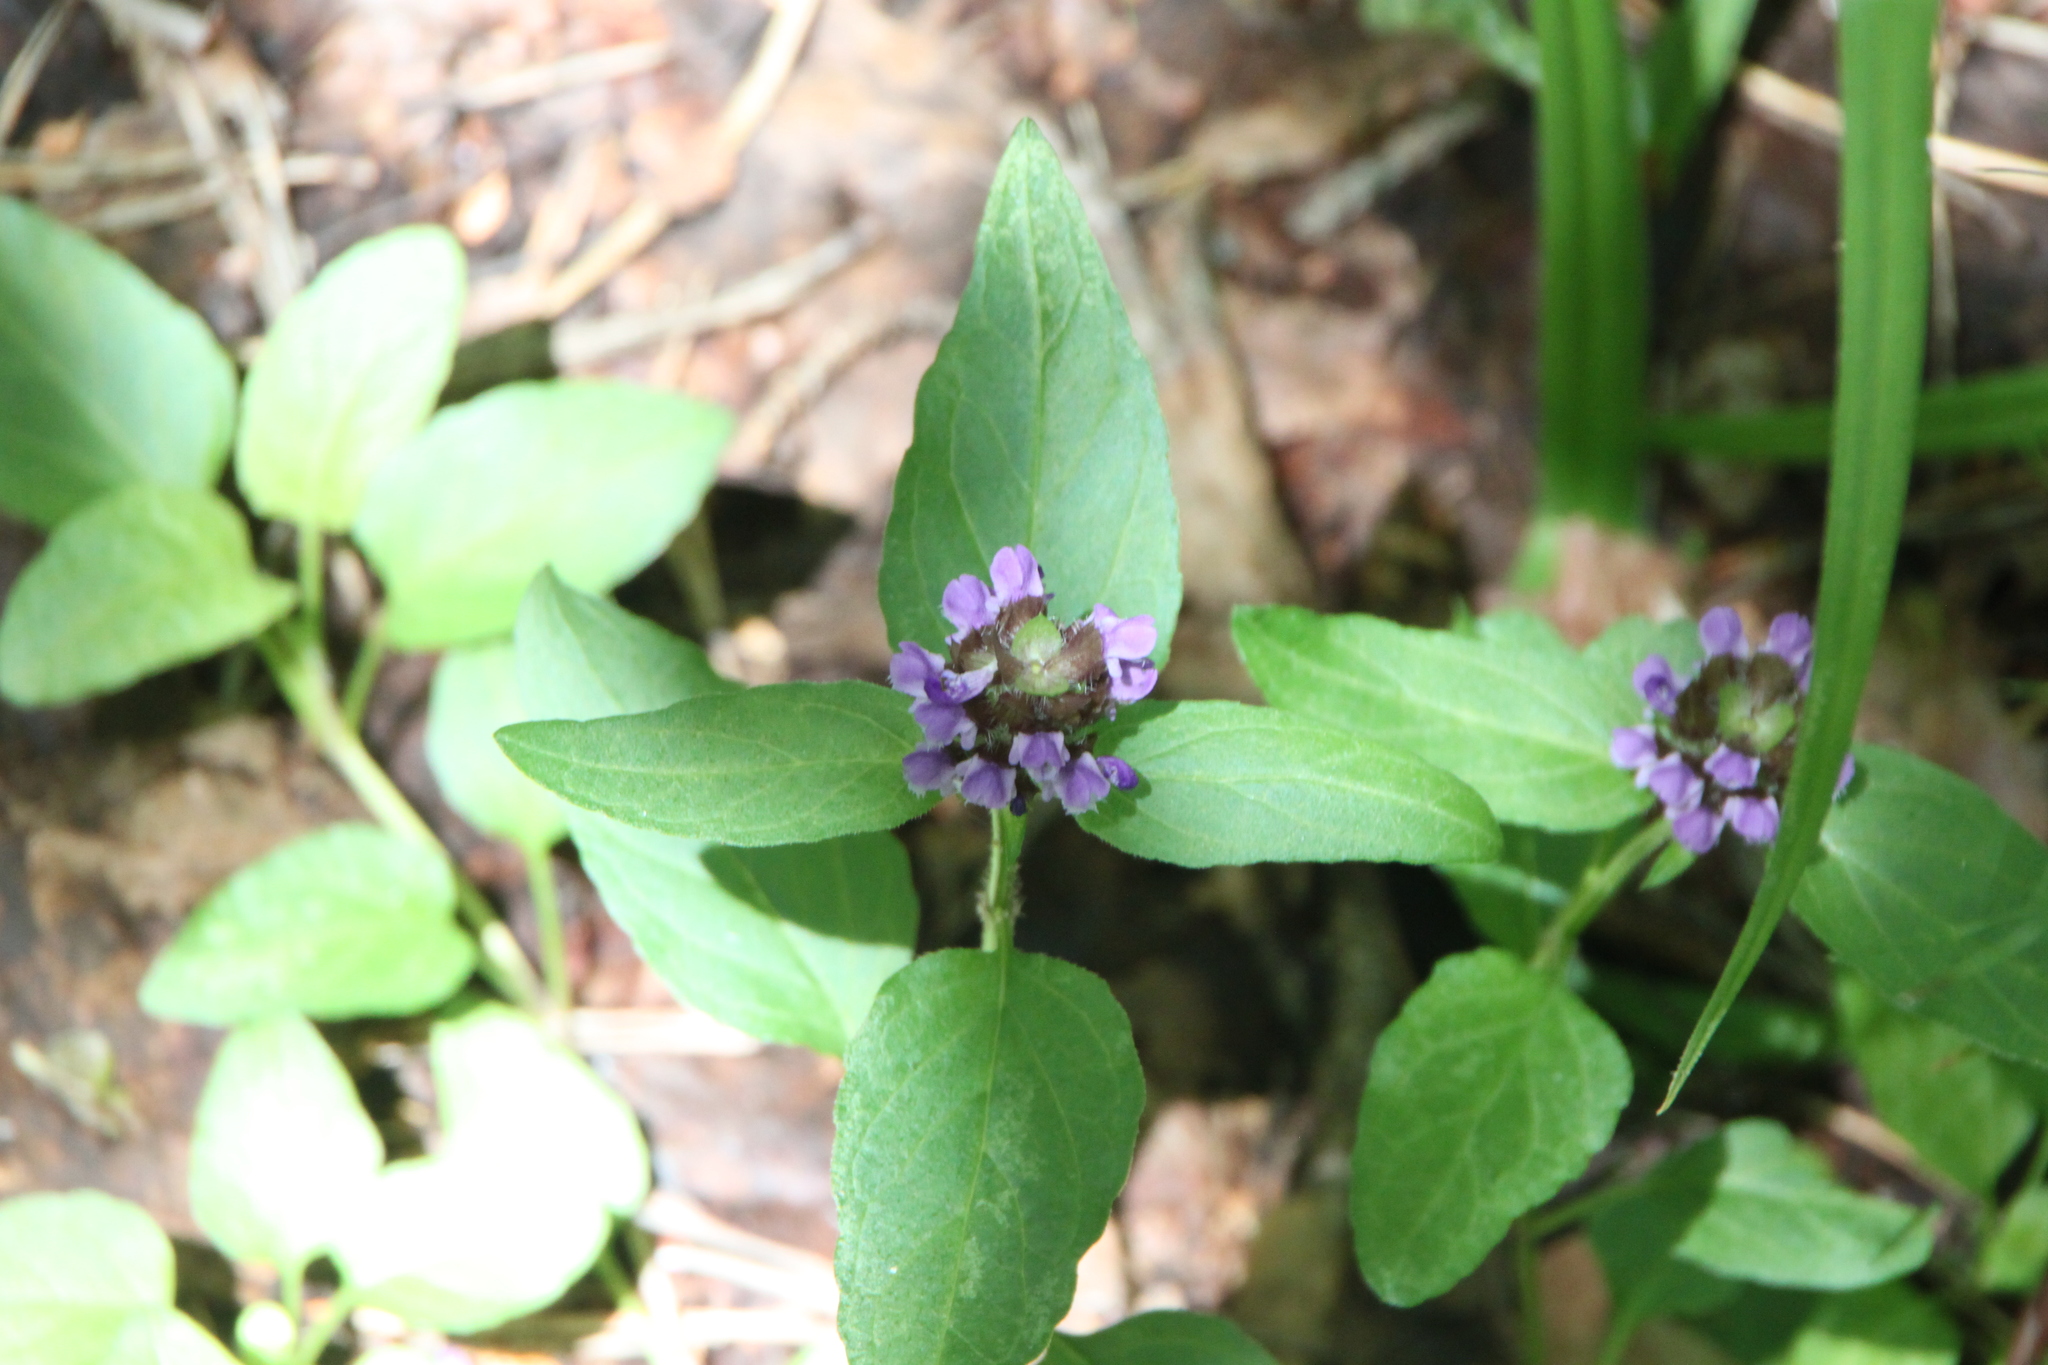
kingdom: Plantae
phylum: Tracheophyta
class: Magnoliopsida
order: Lamiales
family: Lamiaceae
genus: Prunella
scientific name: Prunella vulgaris
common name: Heal-all
